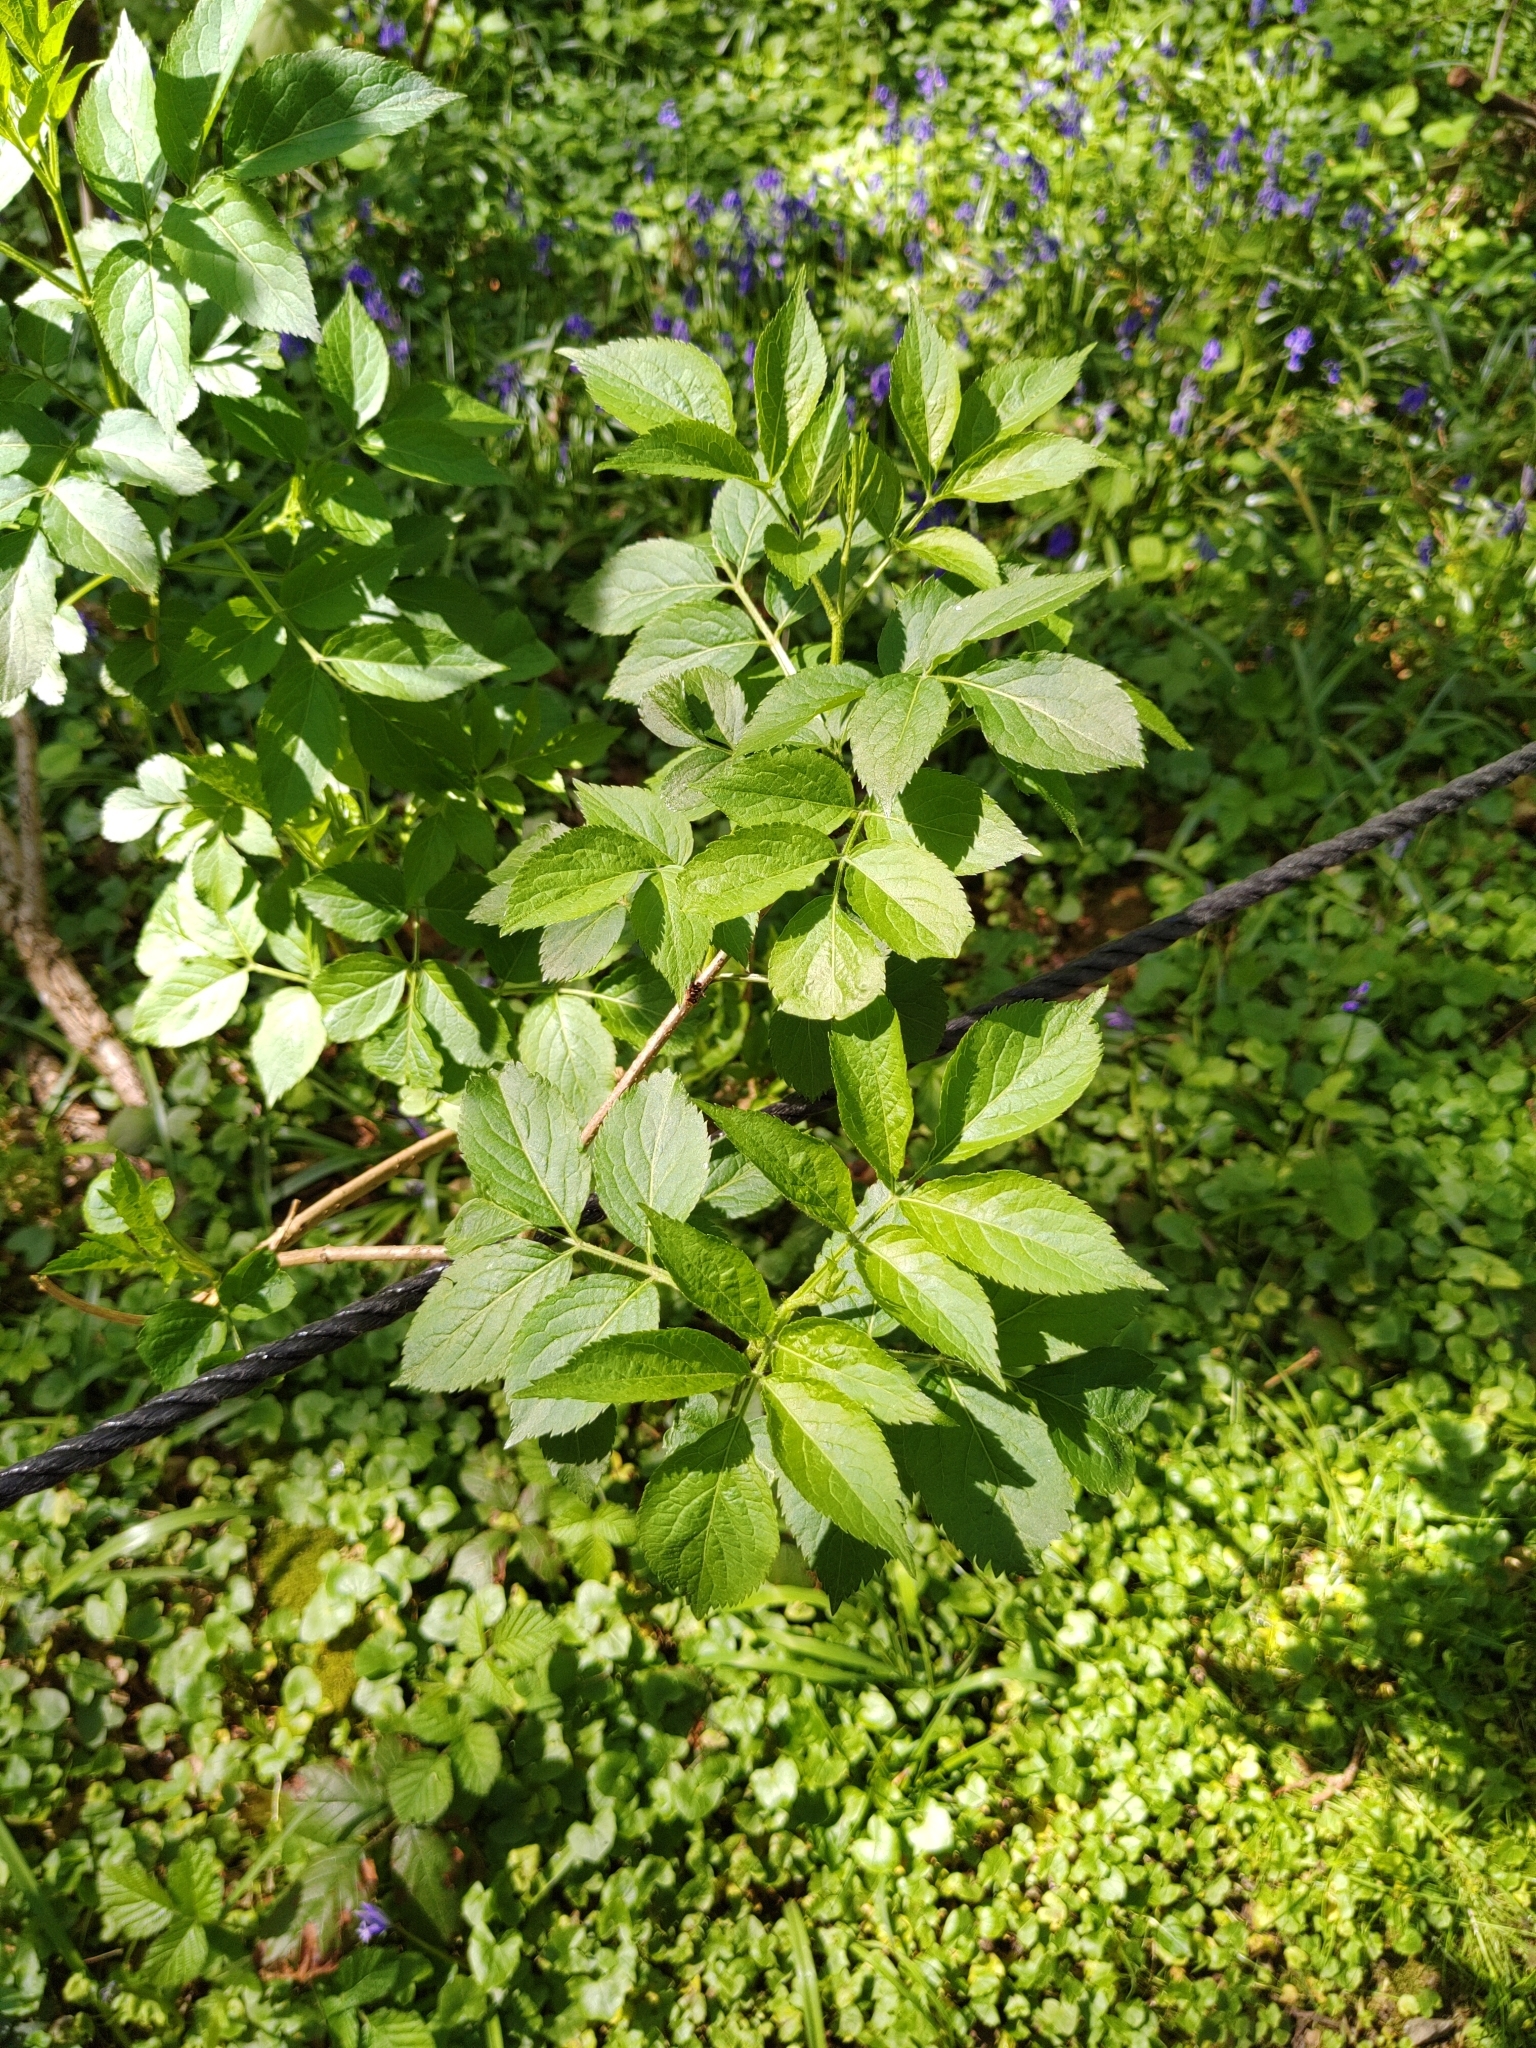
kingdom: Plantae
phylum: Tracheophyta
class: Magnoliopsida
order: Dipsacales
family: Viburnaceae
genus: Sambucus
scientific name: Sambucus nigra
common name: Elder
